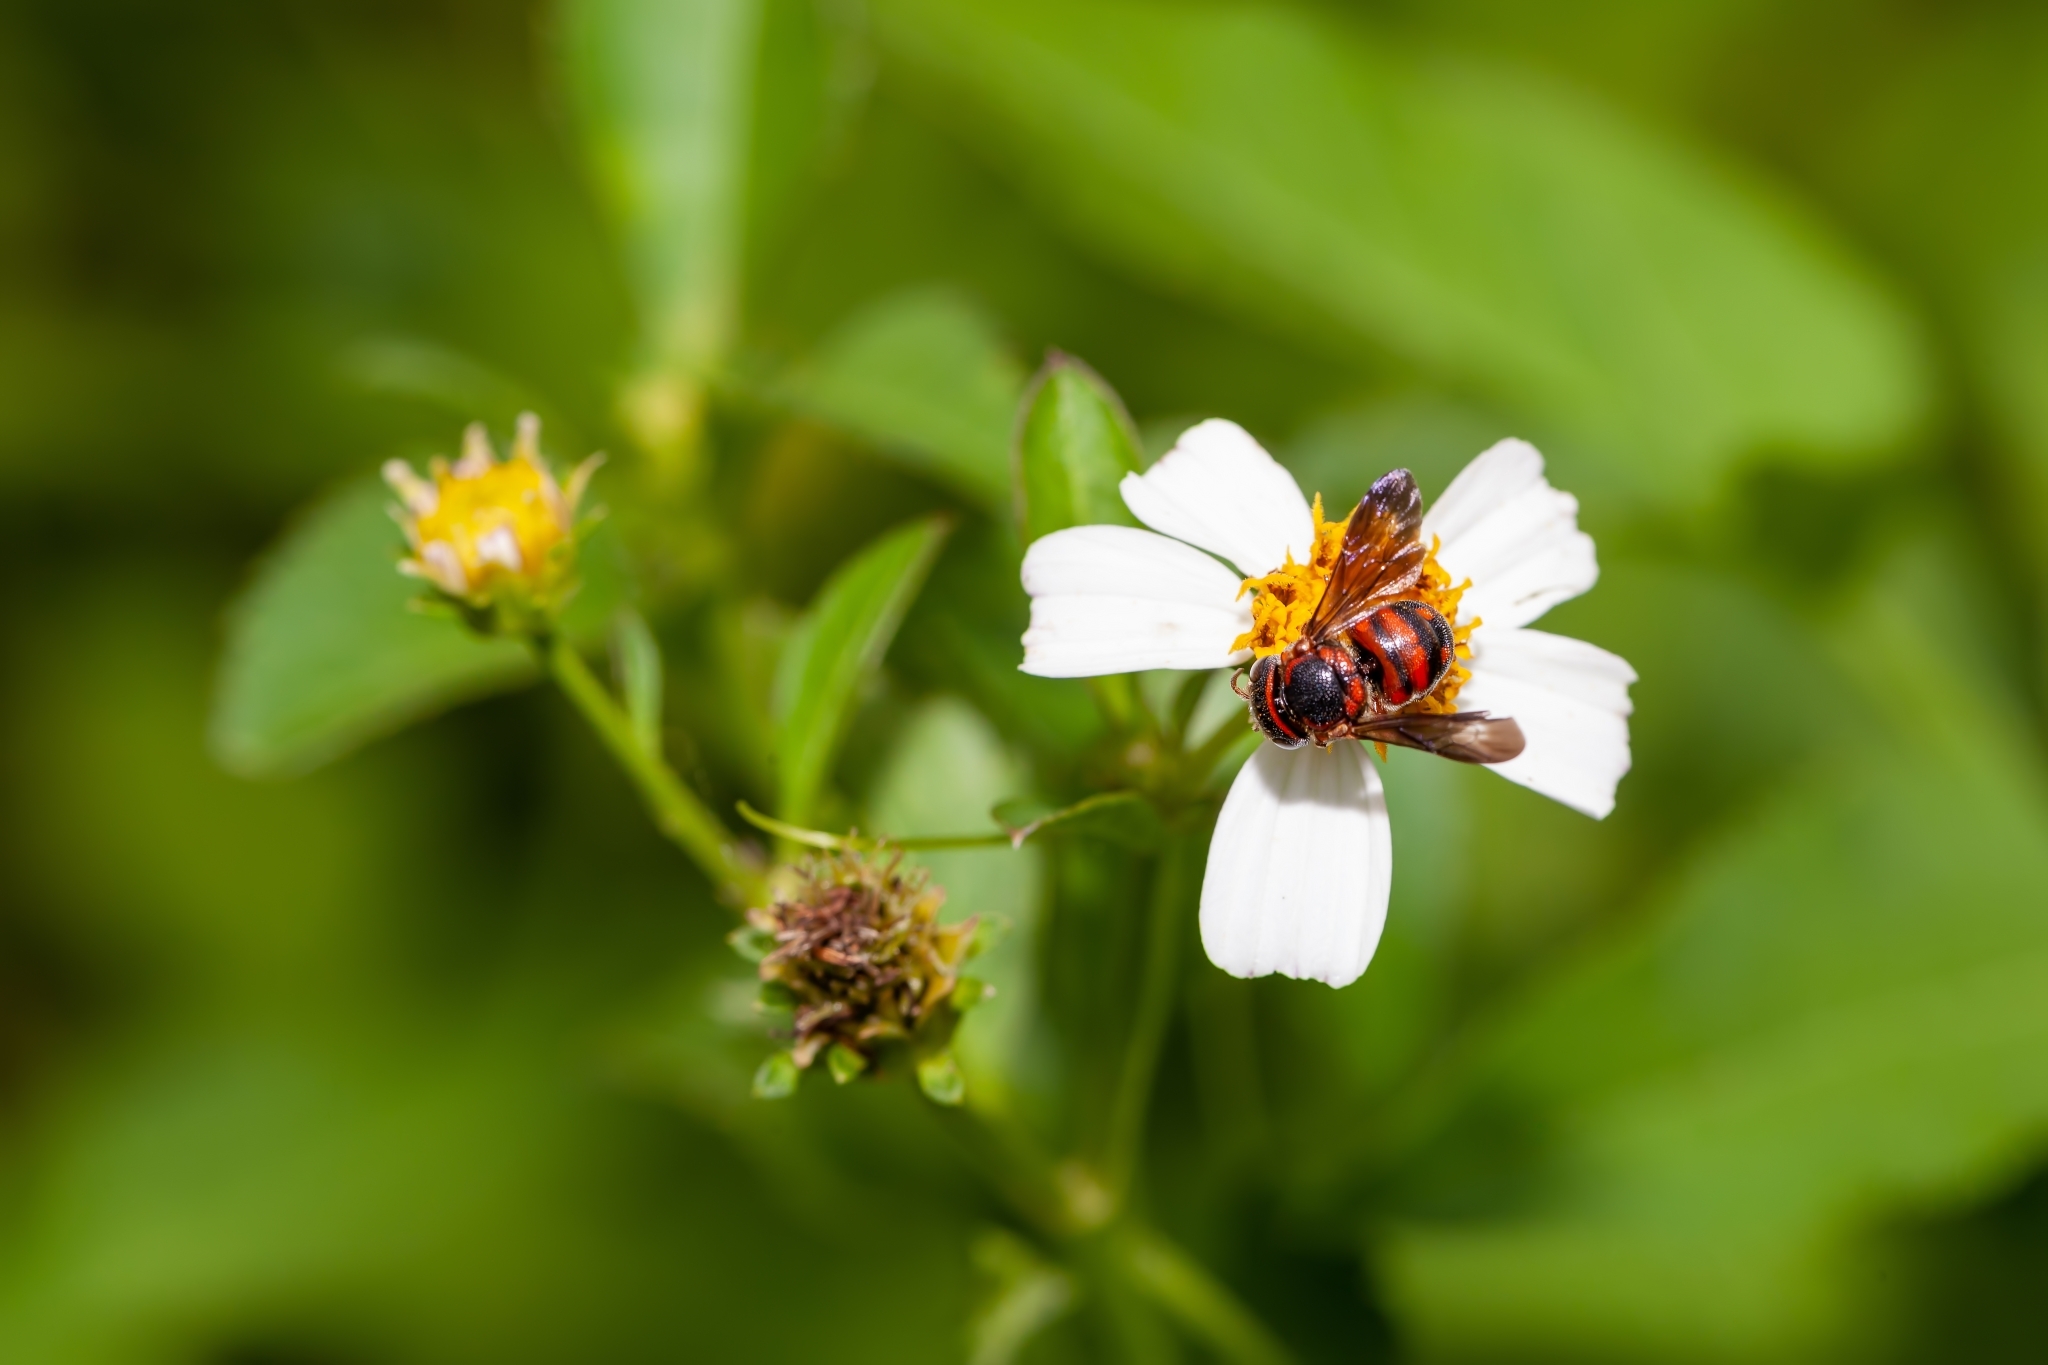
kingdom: Animalia
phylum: Arthropoda
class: Insecta
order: Hymenoptera
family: Megachilidae
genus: Anthidiellum
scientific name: Anthidiellum notatum
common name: Northern rotund-resin bee
